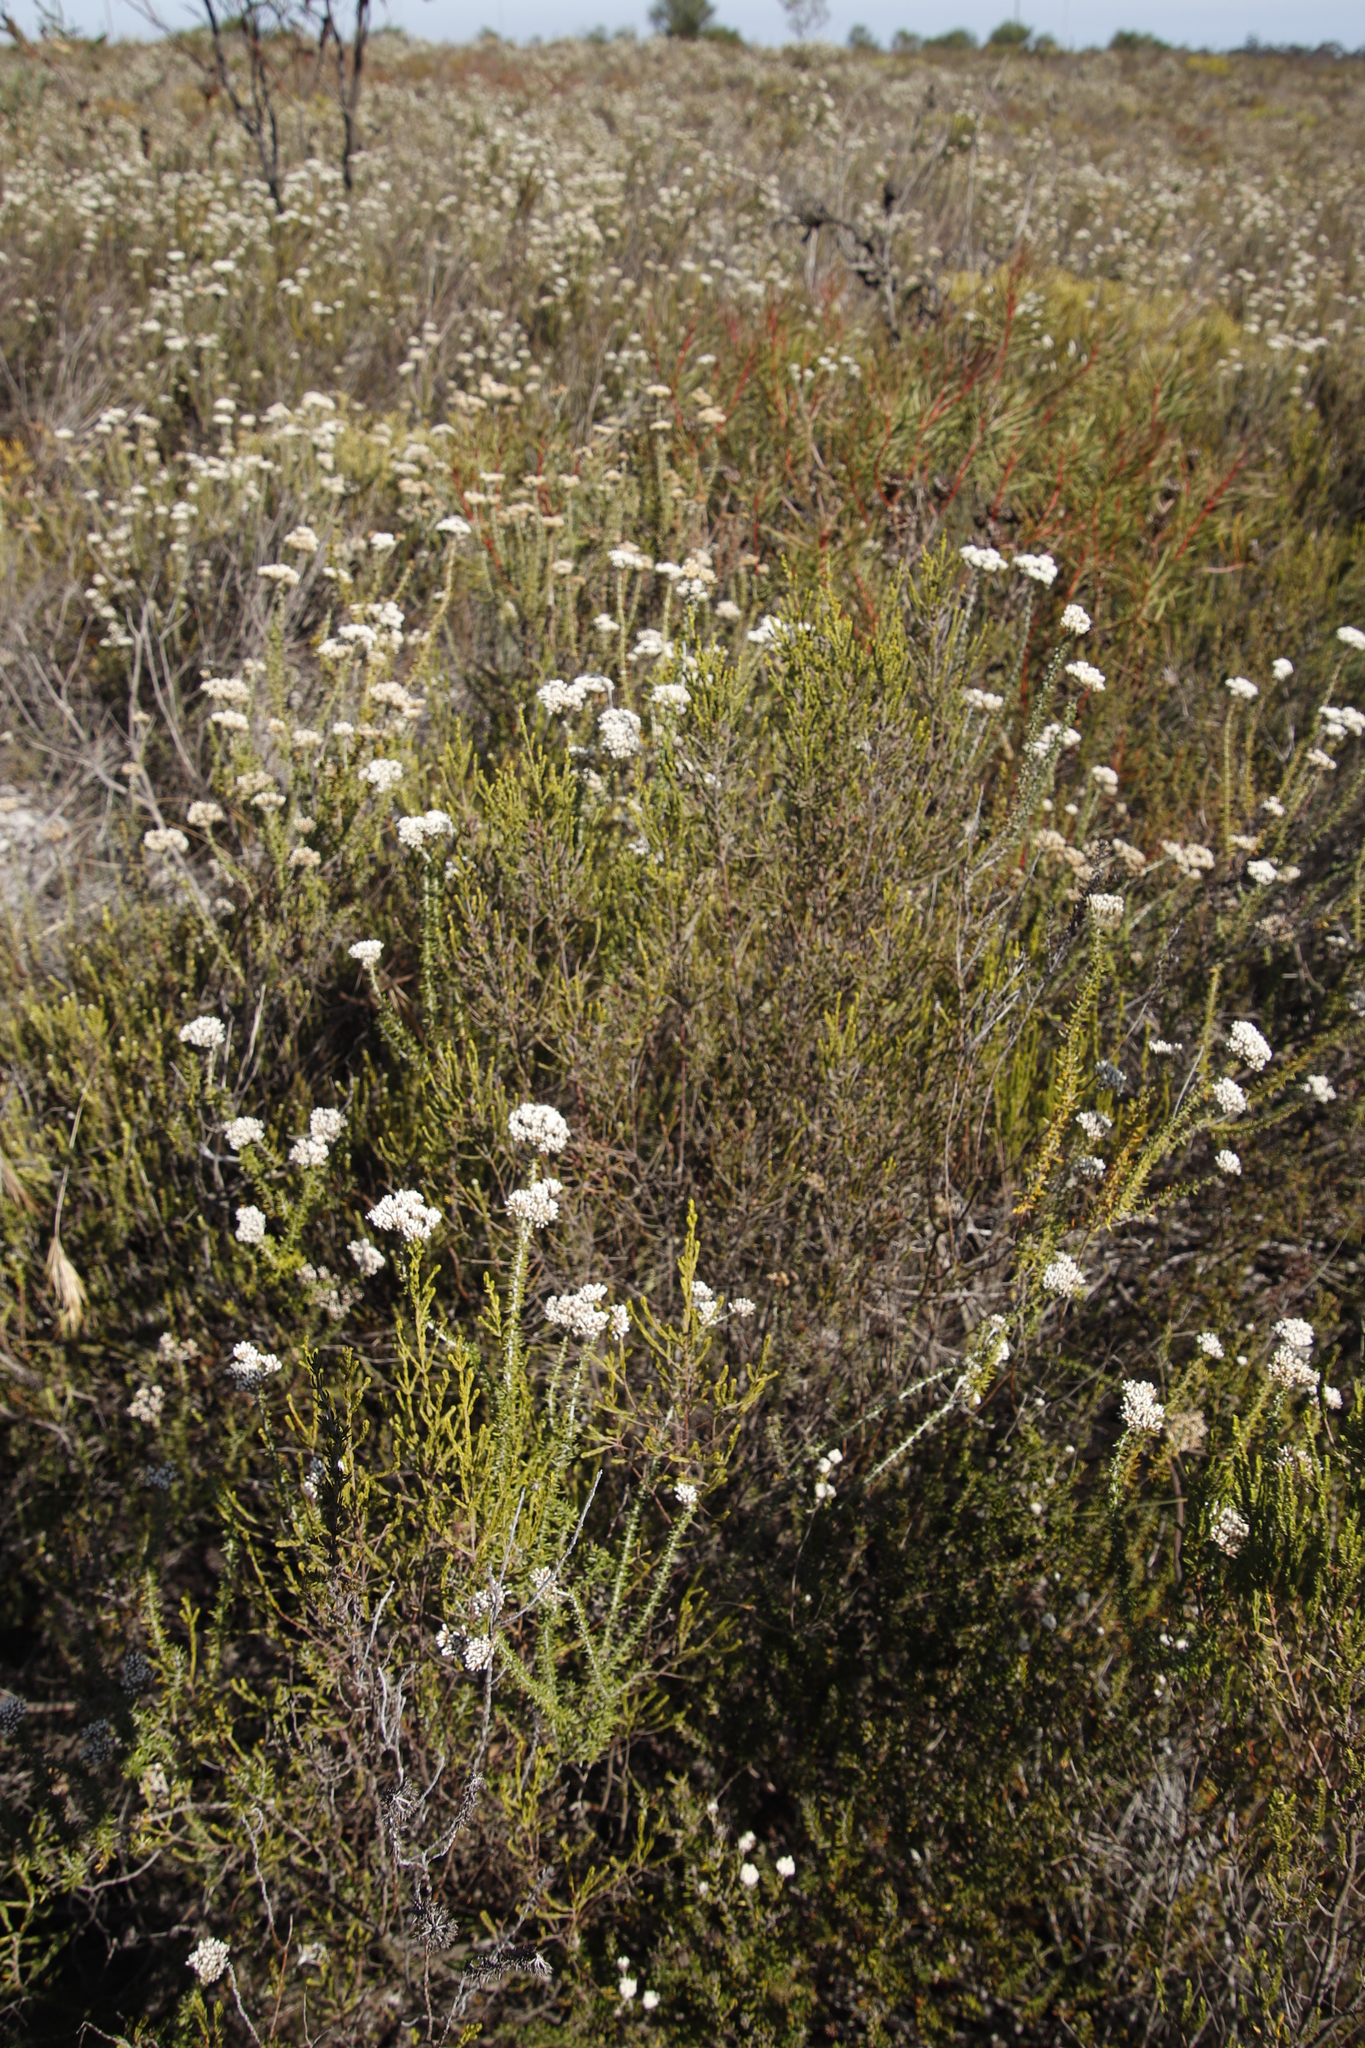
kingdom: Plantae
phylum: Tracheophyta
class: Magnoliopsida
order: Malvales
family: Thymelaeaceae
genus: Passerina
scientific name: Passerina paleacea
